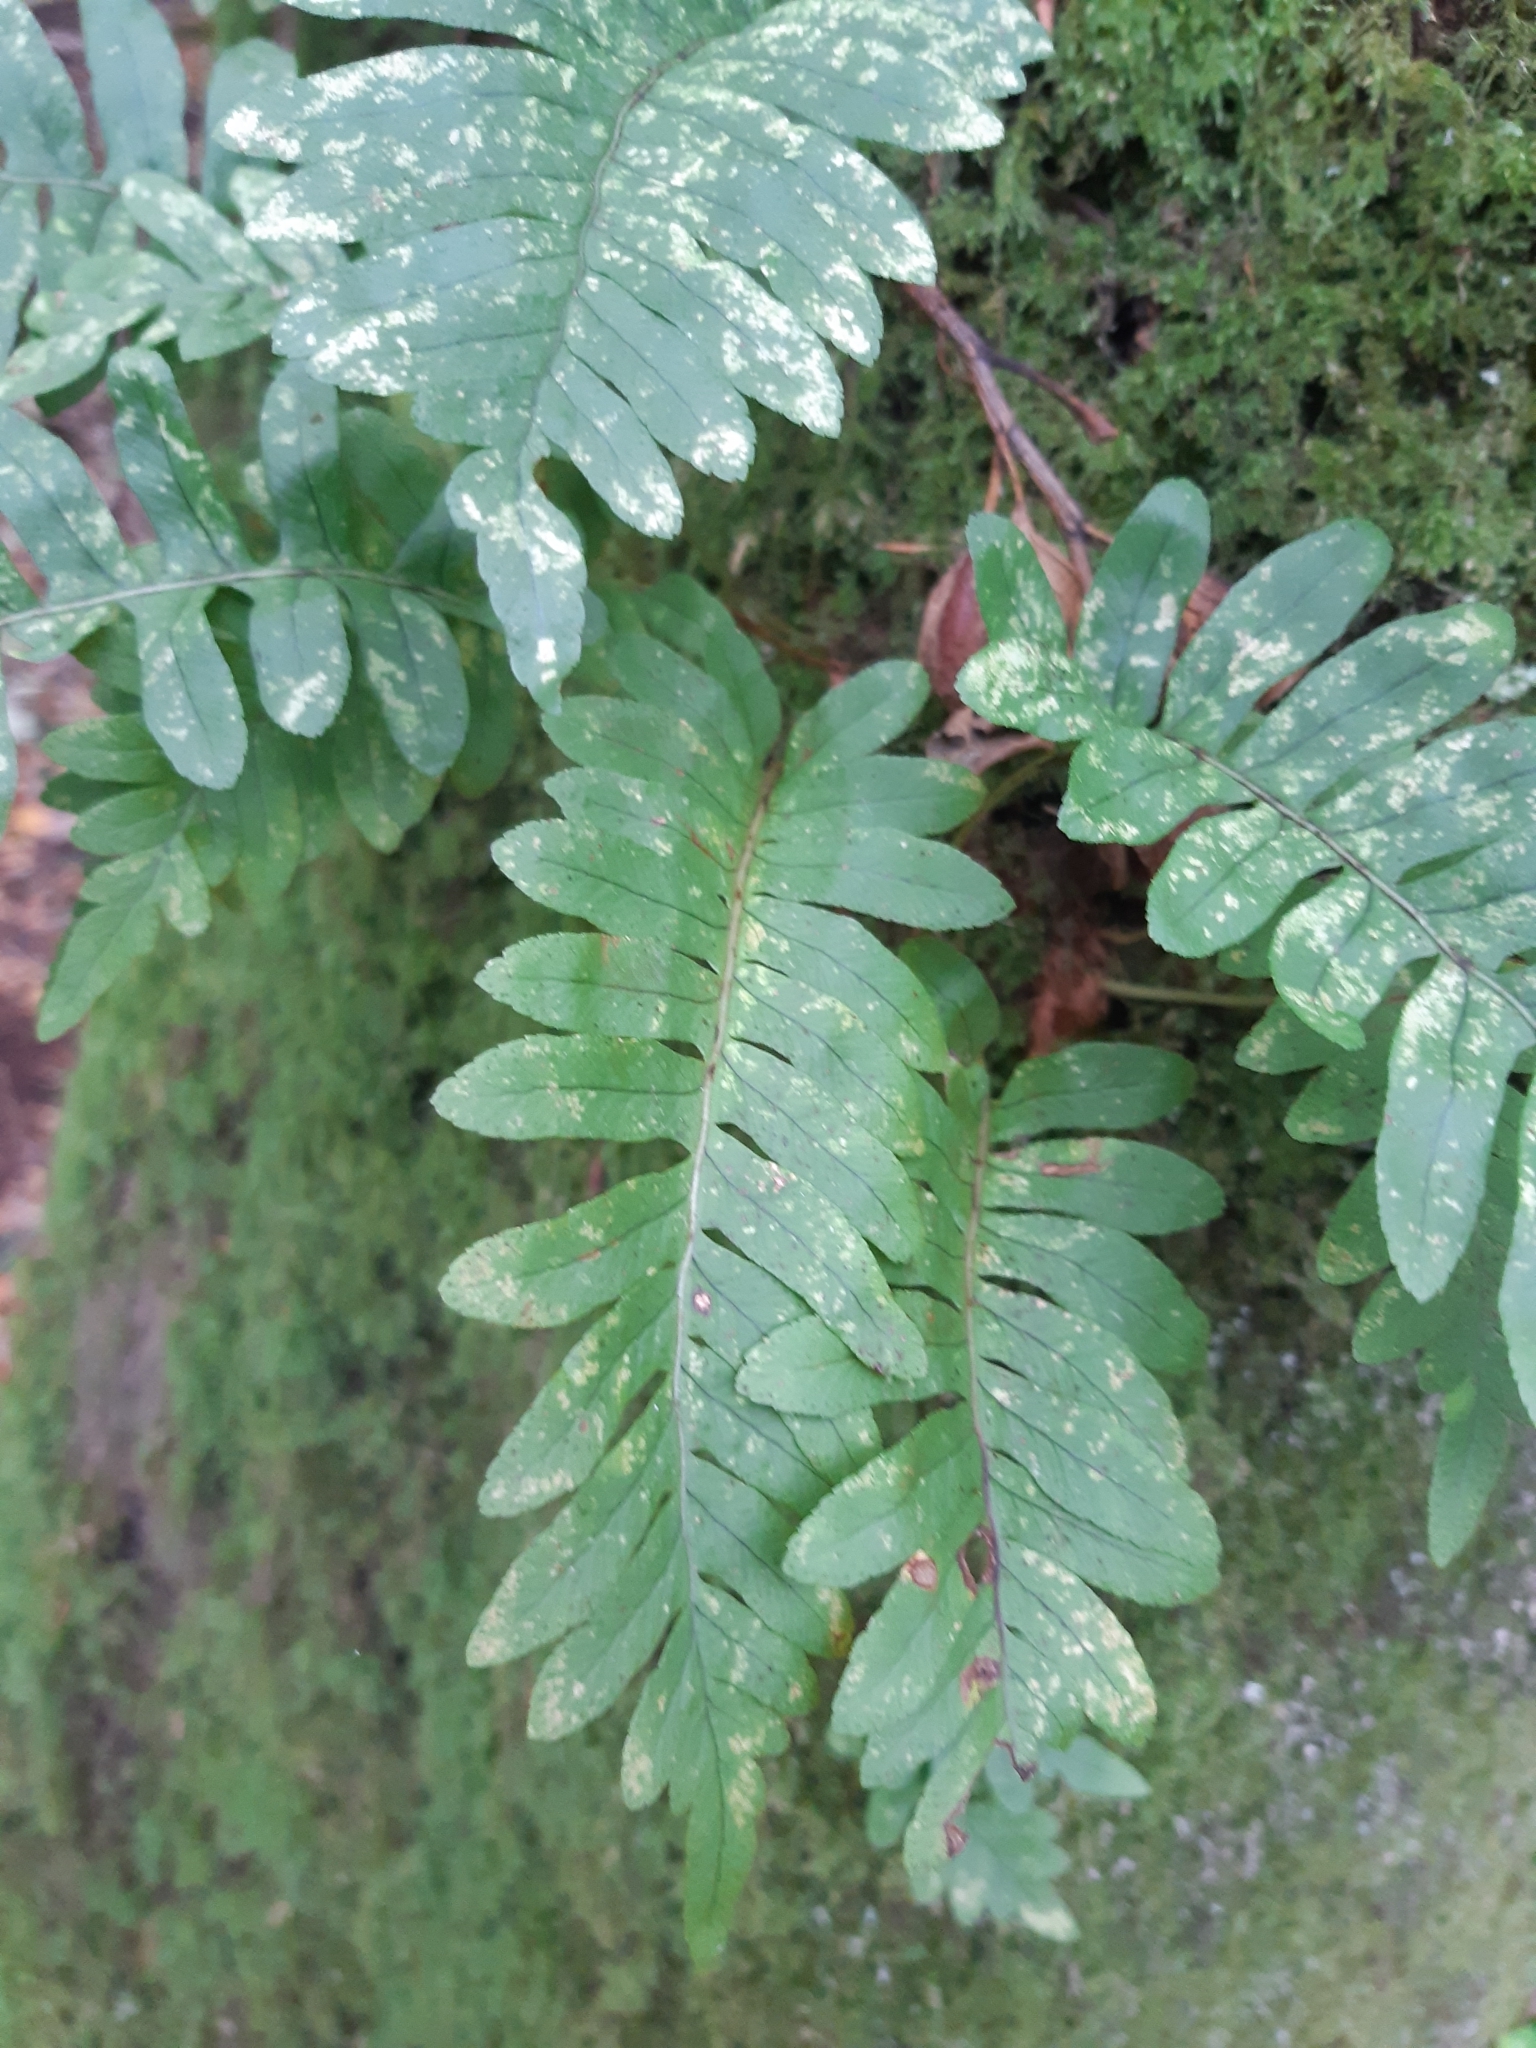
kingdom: Plantae
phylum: Tracheophyta
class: Polypodiopsida
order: Polypodiales
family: Polypodiaceae
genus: Polypodium
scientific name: Polypodium vulgare
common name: Common polypody
